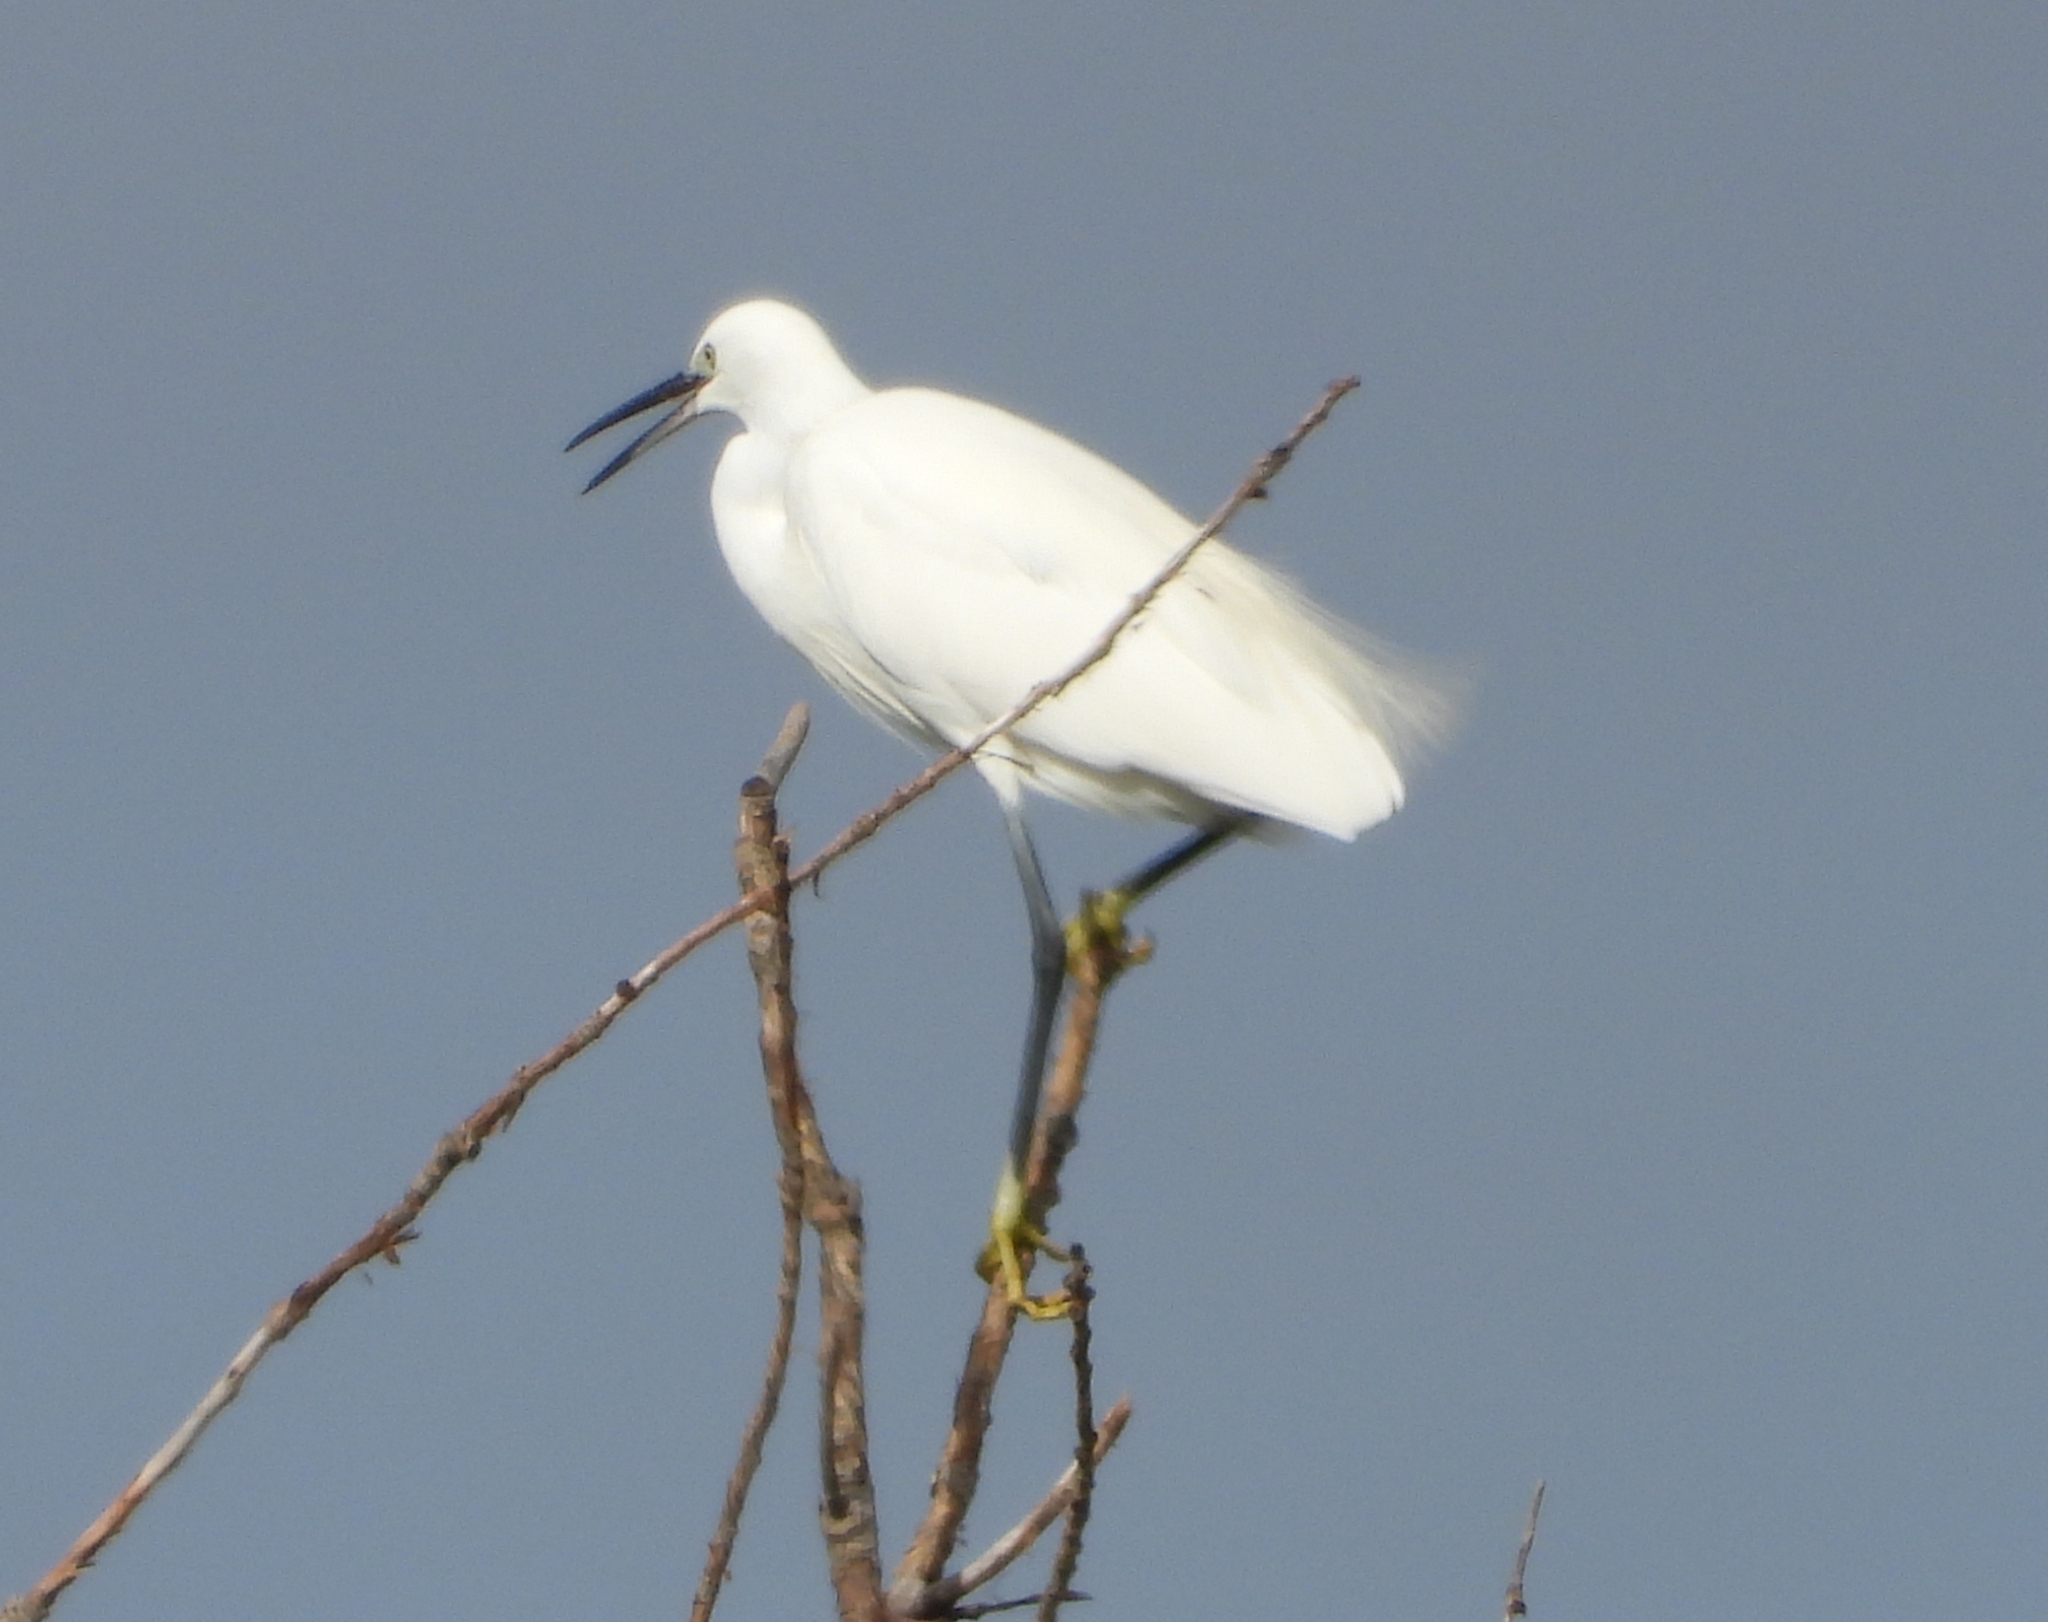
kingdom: Animalia
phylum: Chordata
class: Aves
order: Pelecaniformes
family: Ardeidae
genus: Egretta
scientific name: Egretta garzetta
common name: Little egret
